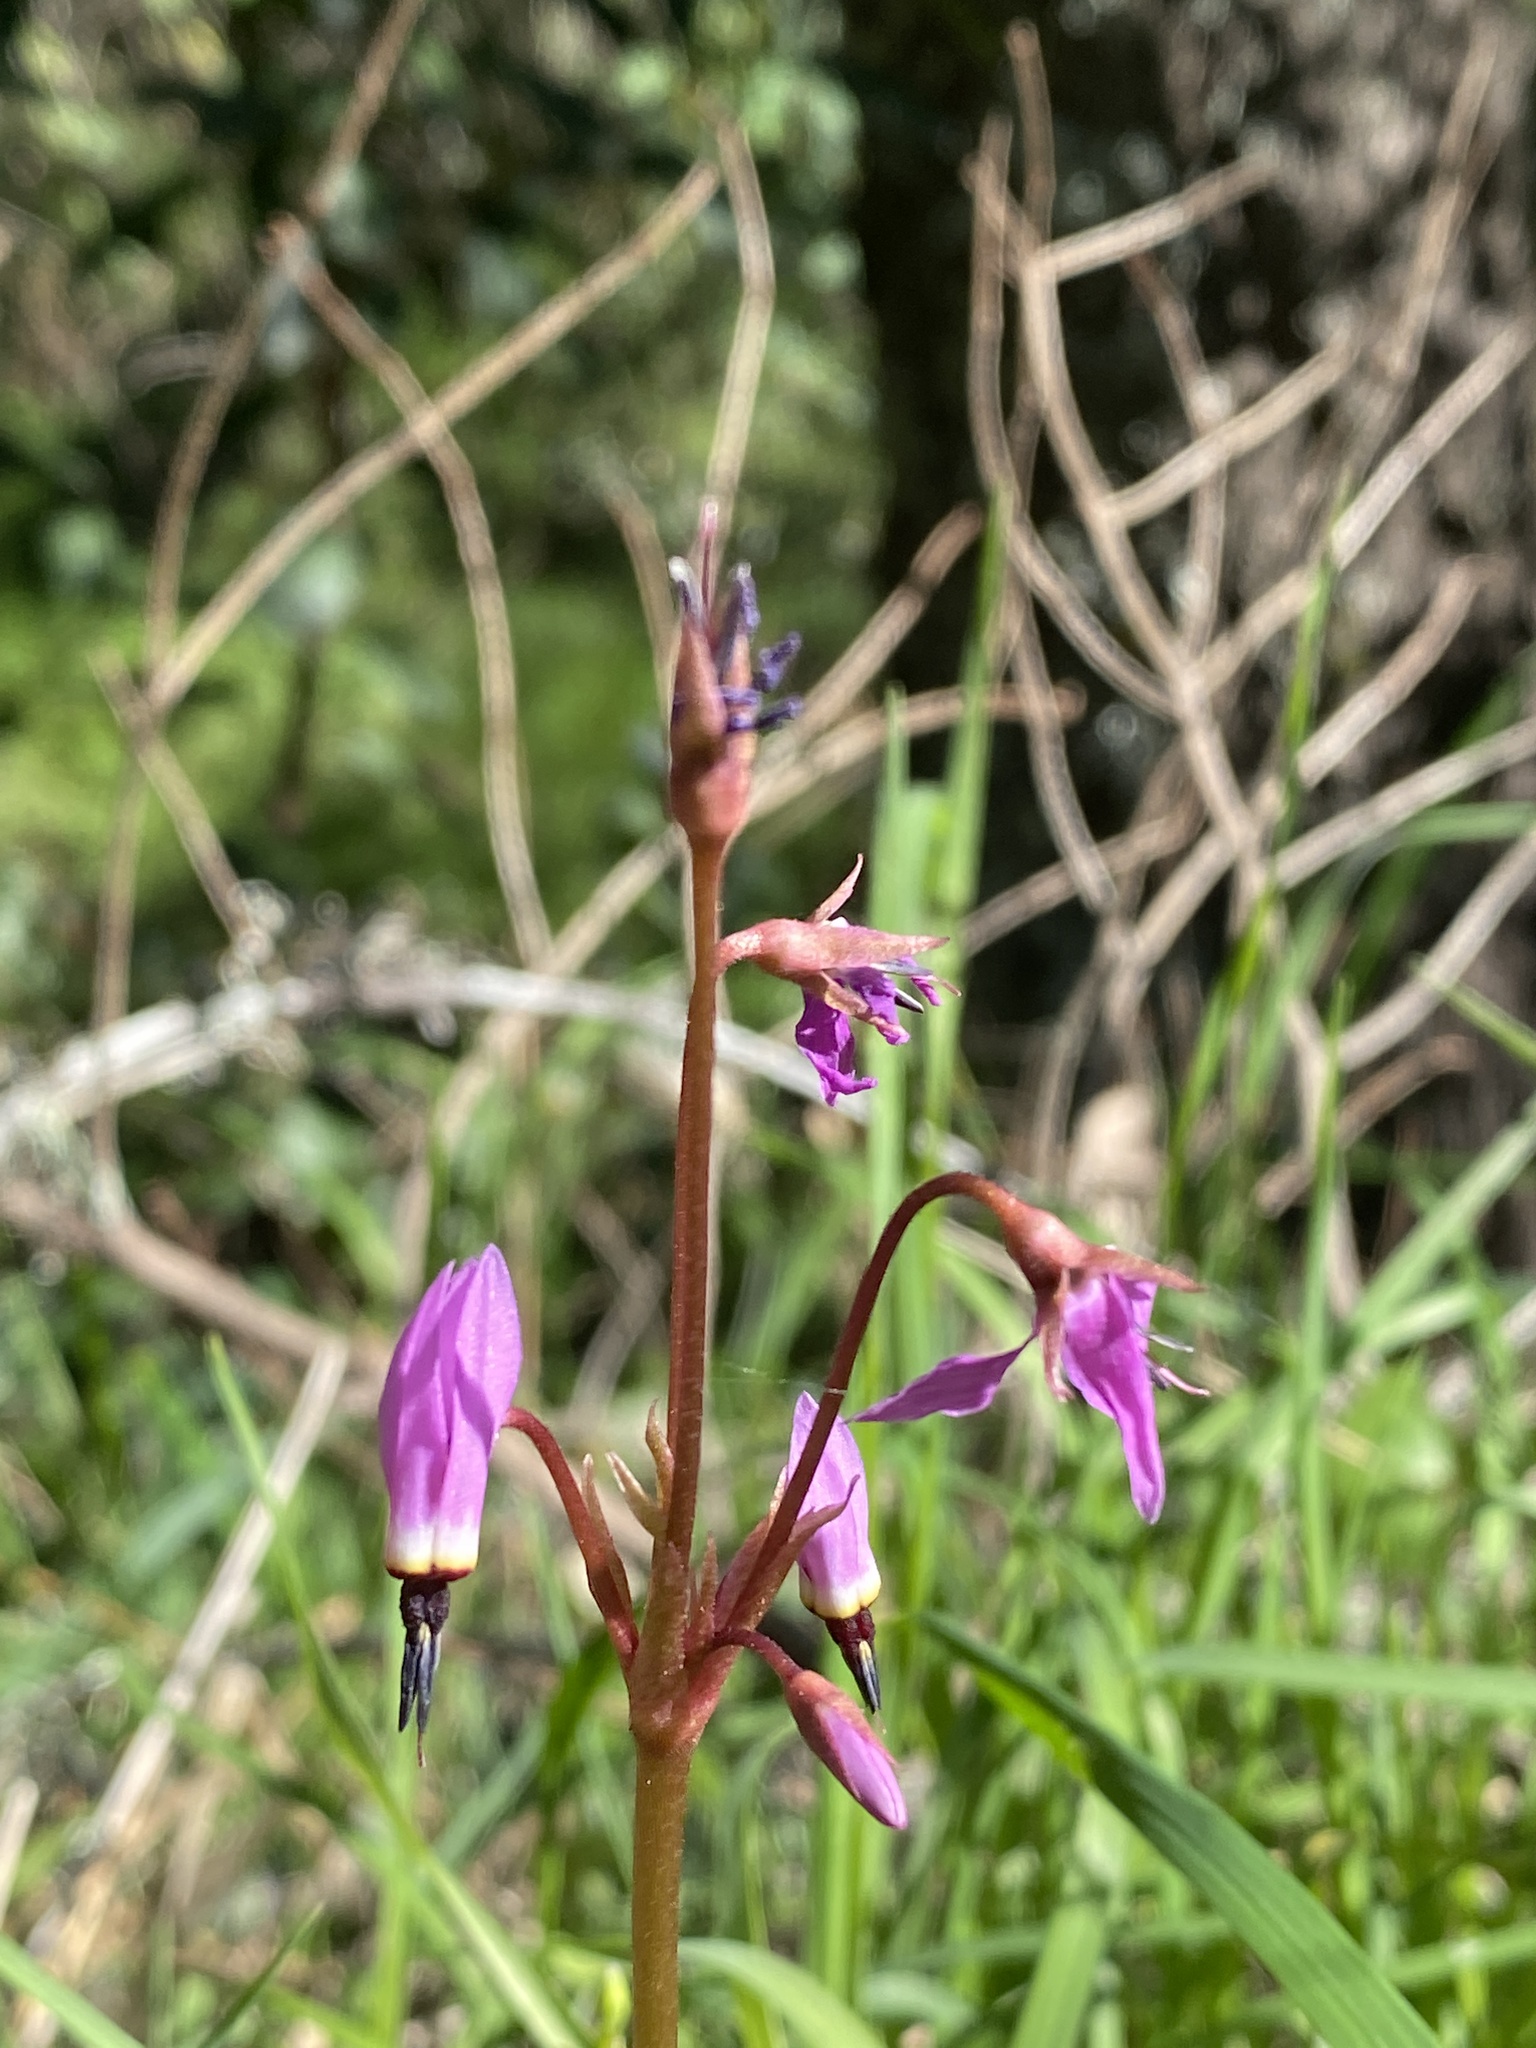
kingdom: Plantae
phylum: Tracheophyta
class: Magnoliopsida
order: Ericales
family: Primulaceae
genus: Dodecatheon
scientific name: Dodecatheon hendersonii
